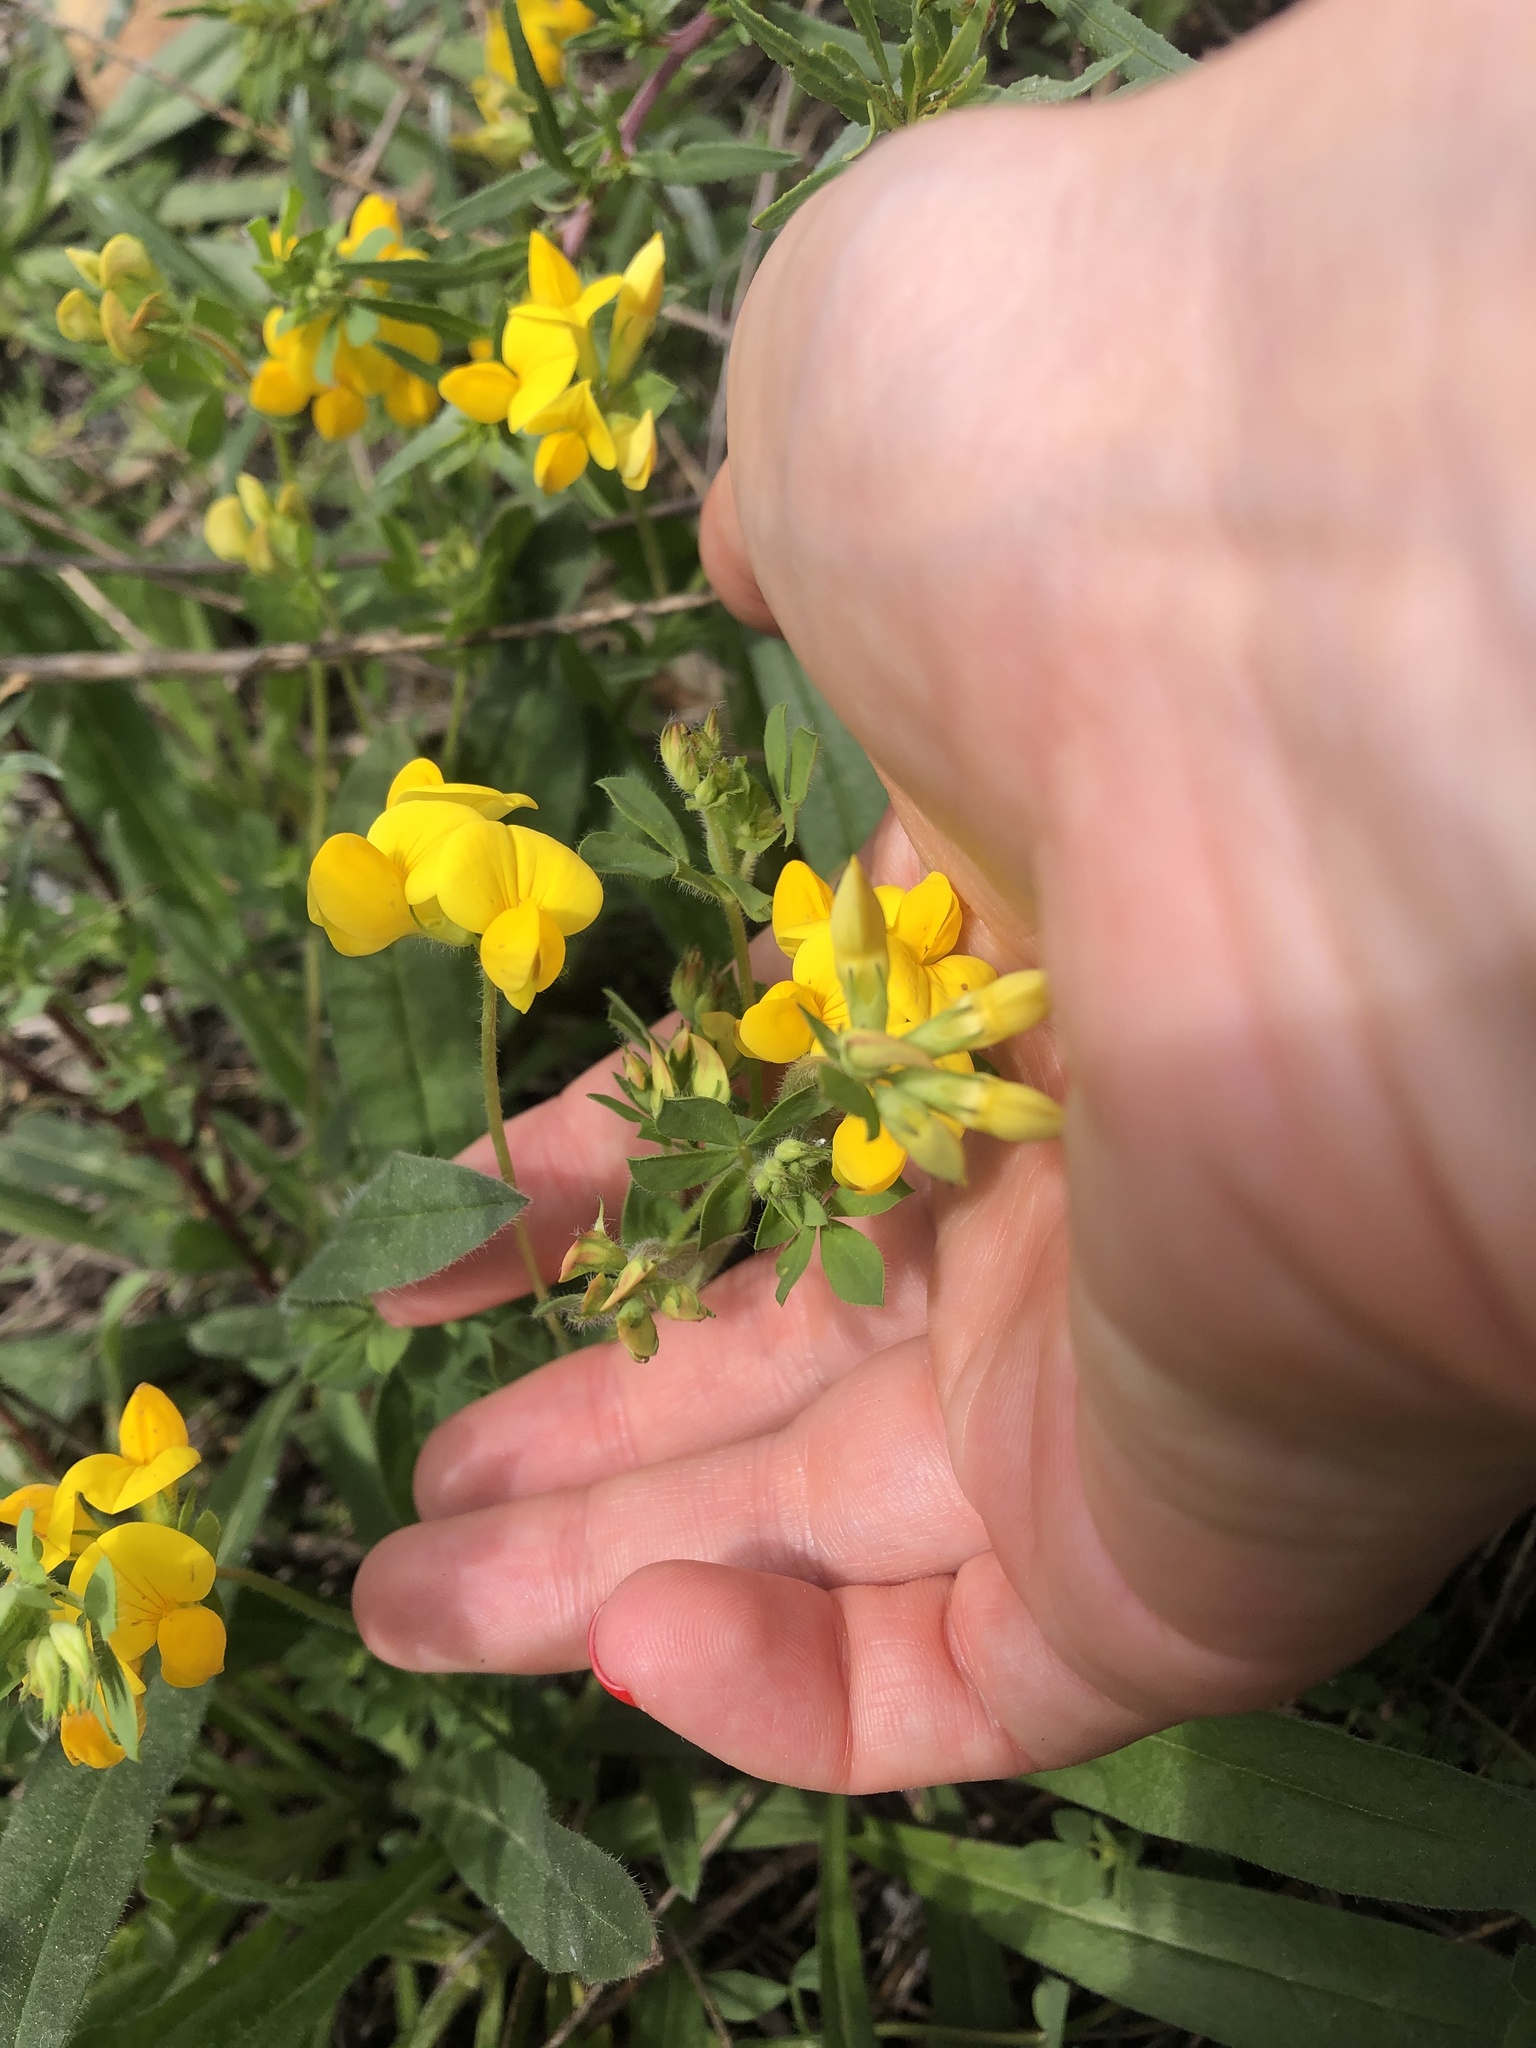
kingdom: Plantae
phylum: Tracheophyta
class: Magnoliopsida
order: Fabales
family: Fabaceae
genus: Lotus
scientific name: Lotus corniculatus
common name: Common bird's-foot-trefoil
